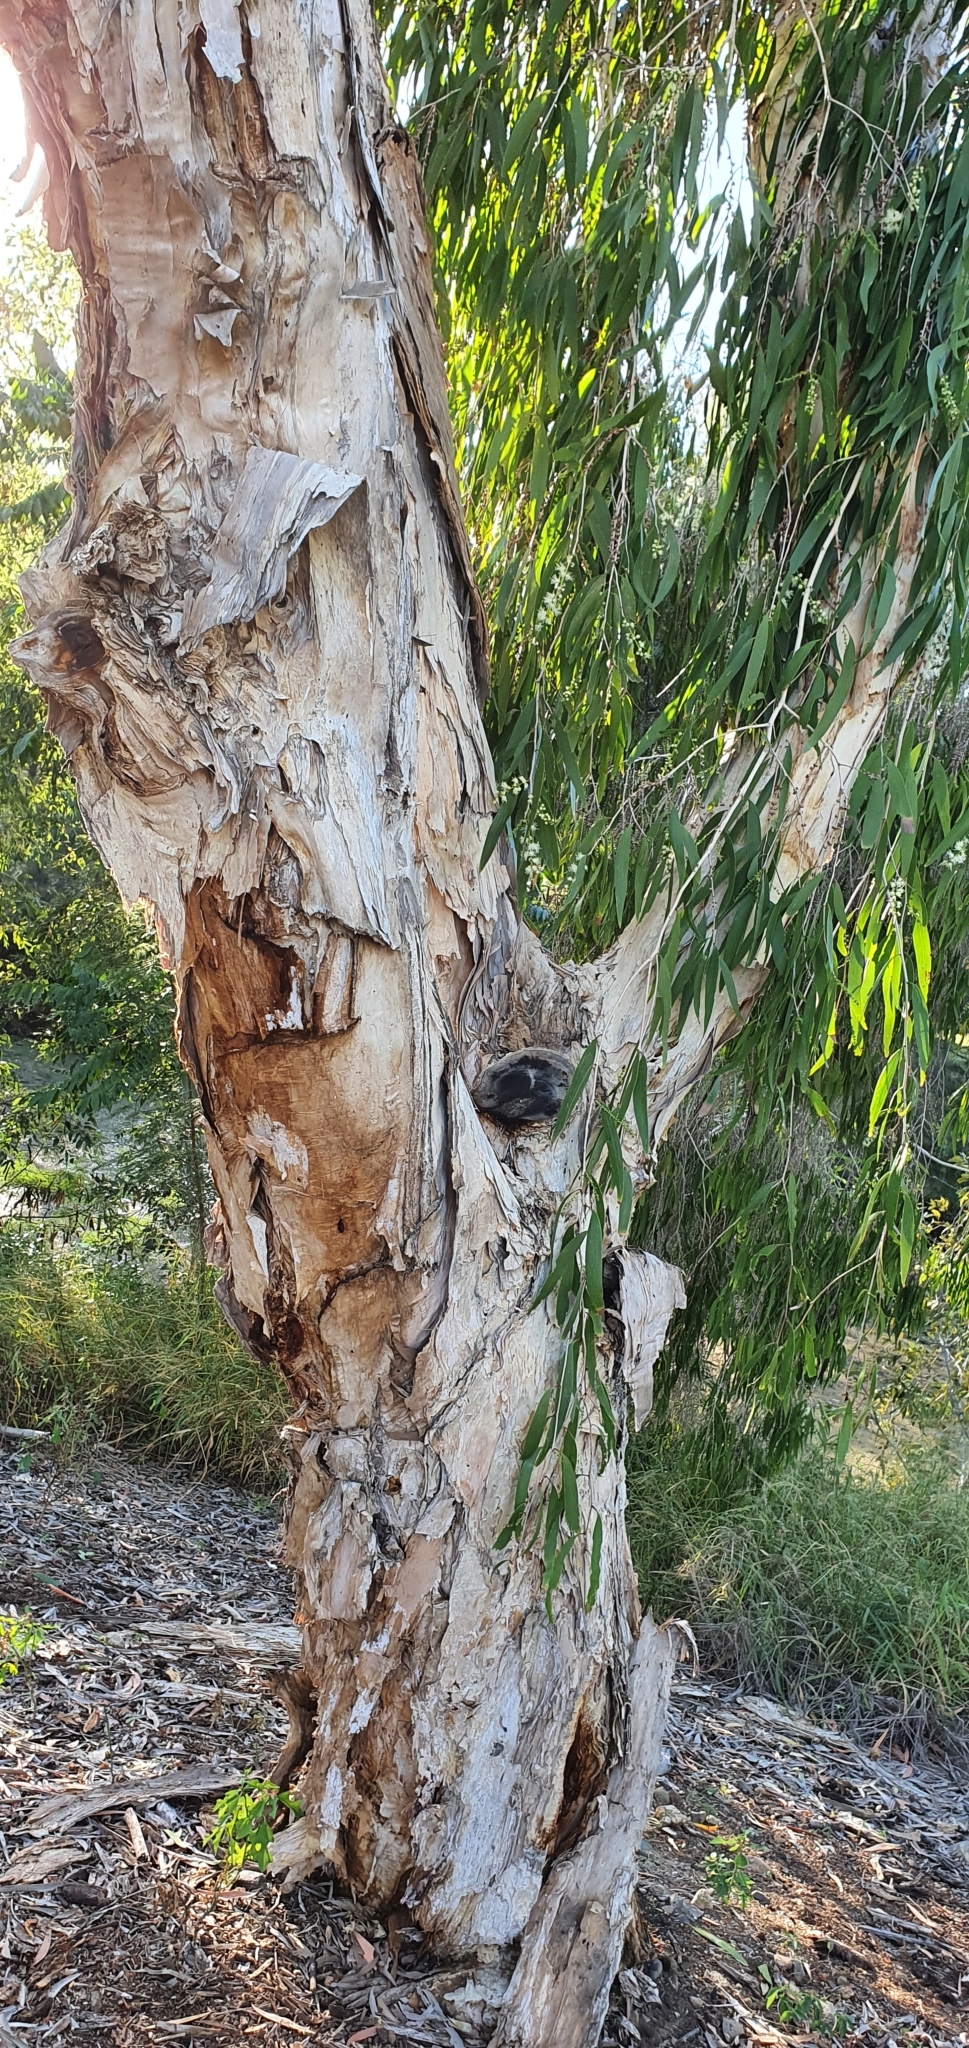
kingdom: Plantae
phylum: Tracheophyta
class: Magnoliopsida
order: Myrtales
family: Myrtaceae
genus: Melaleuca
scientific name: Melaleuca leucadendra
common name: Weeping paperbark
